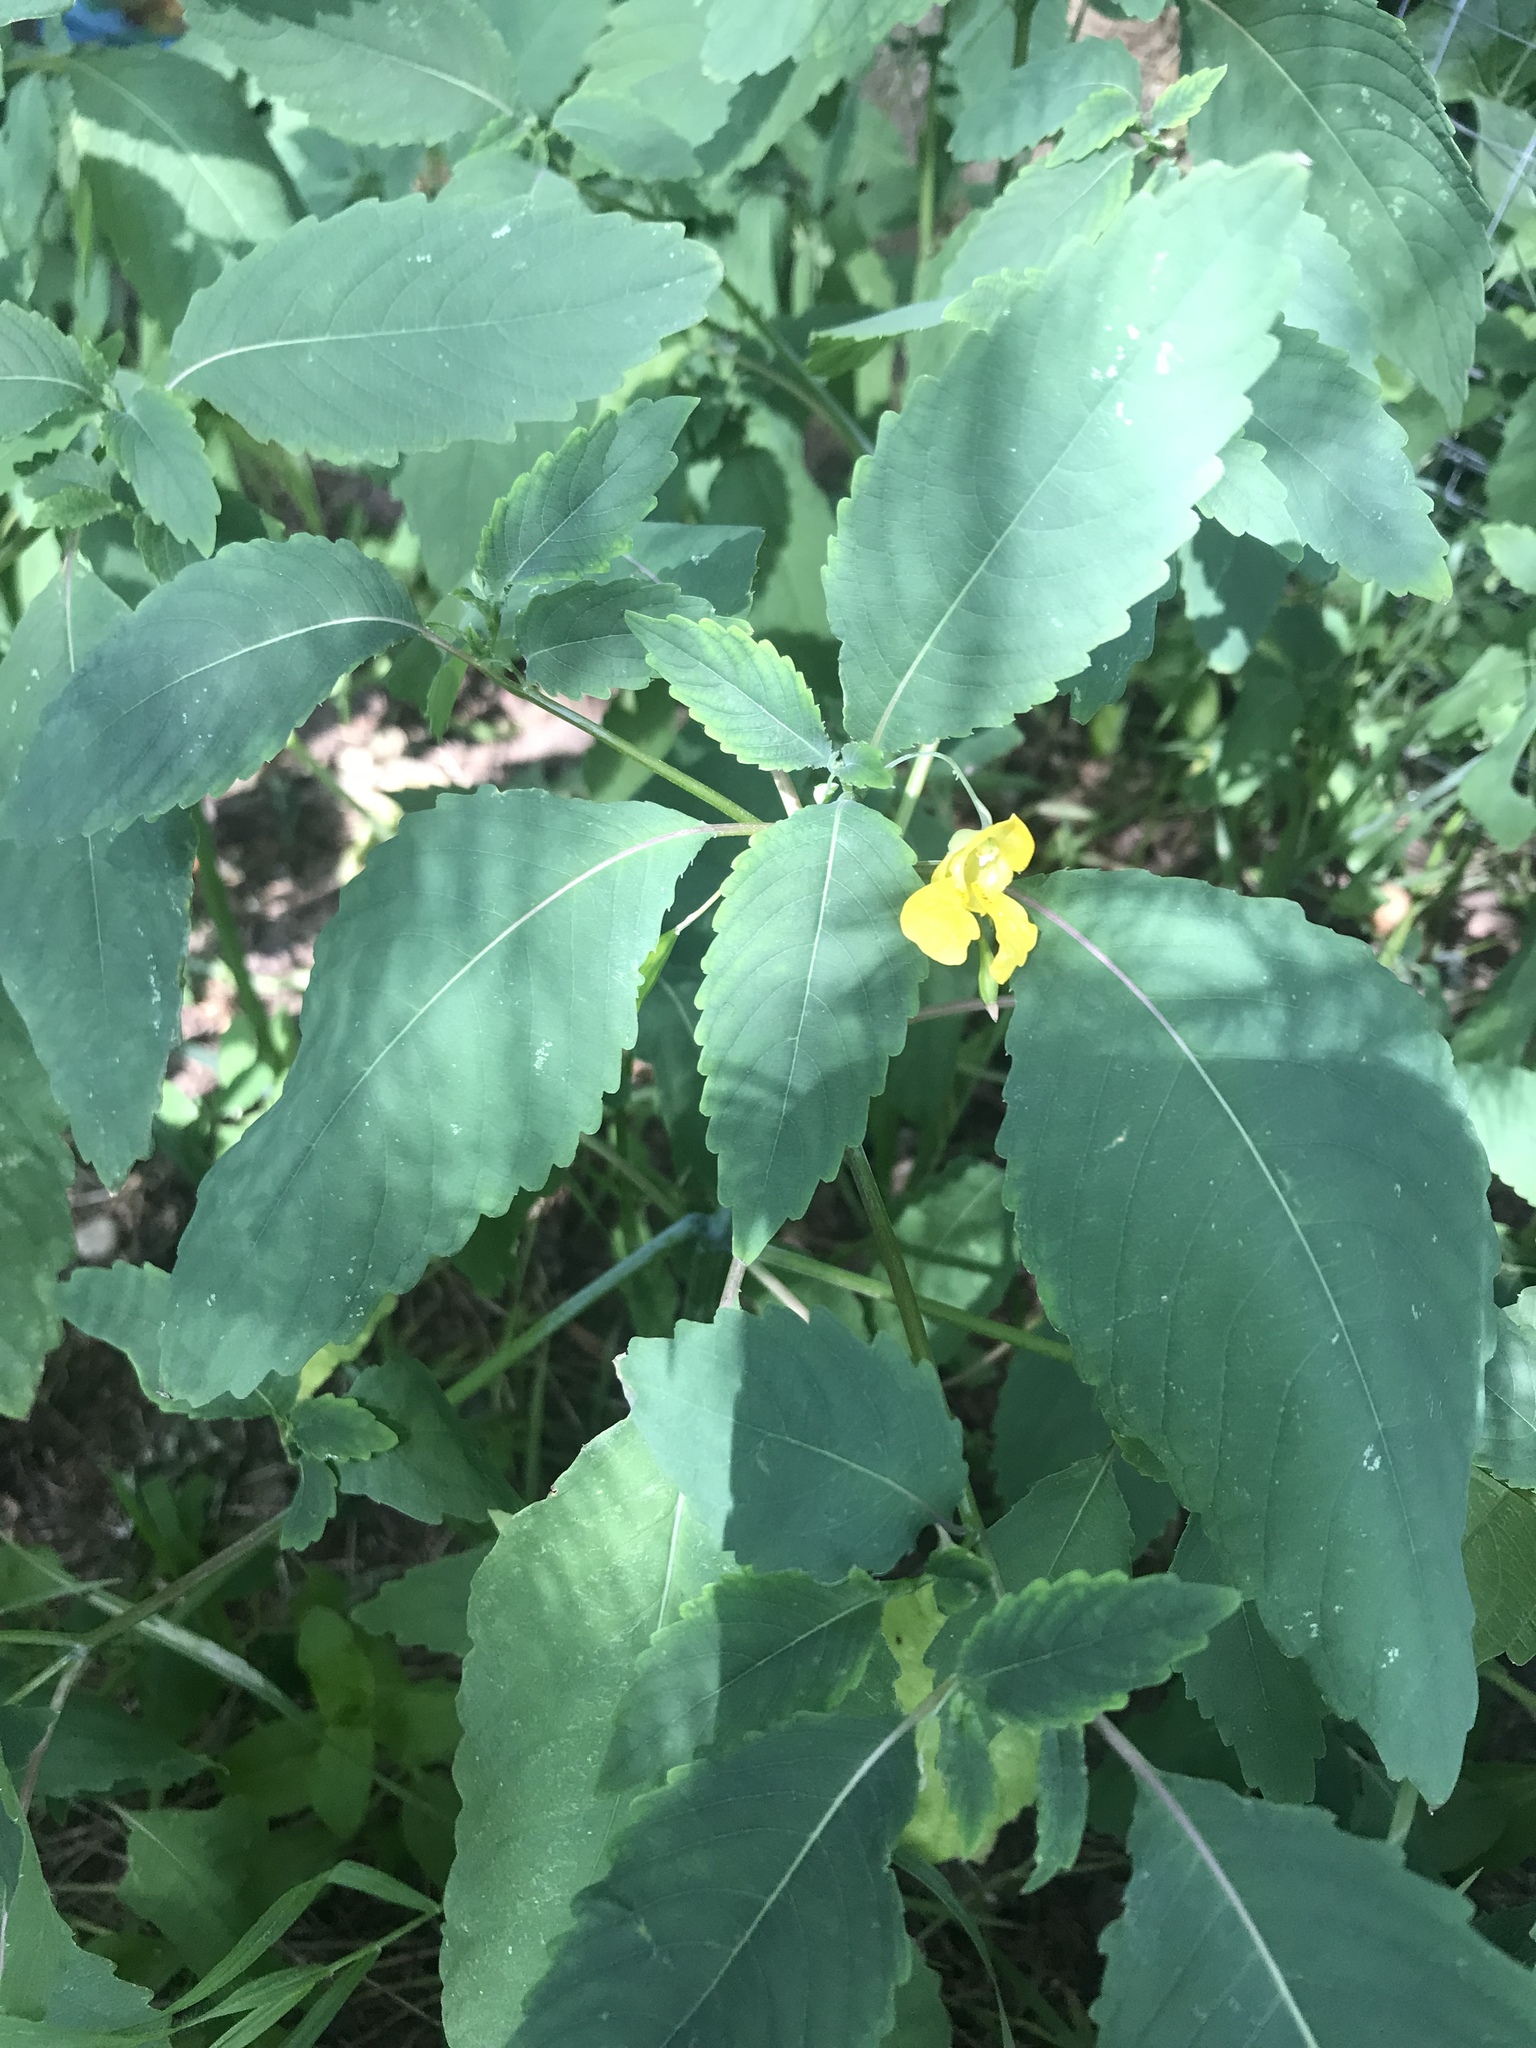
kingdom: Plantae
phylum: Tracheophyta
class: Magnoliopsida
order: Ericales
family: Balsaminaceae
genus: Impatiens
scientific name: Impatiens pallida
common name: Pale snapweed
